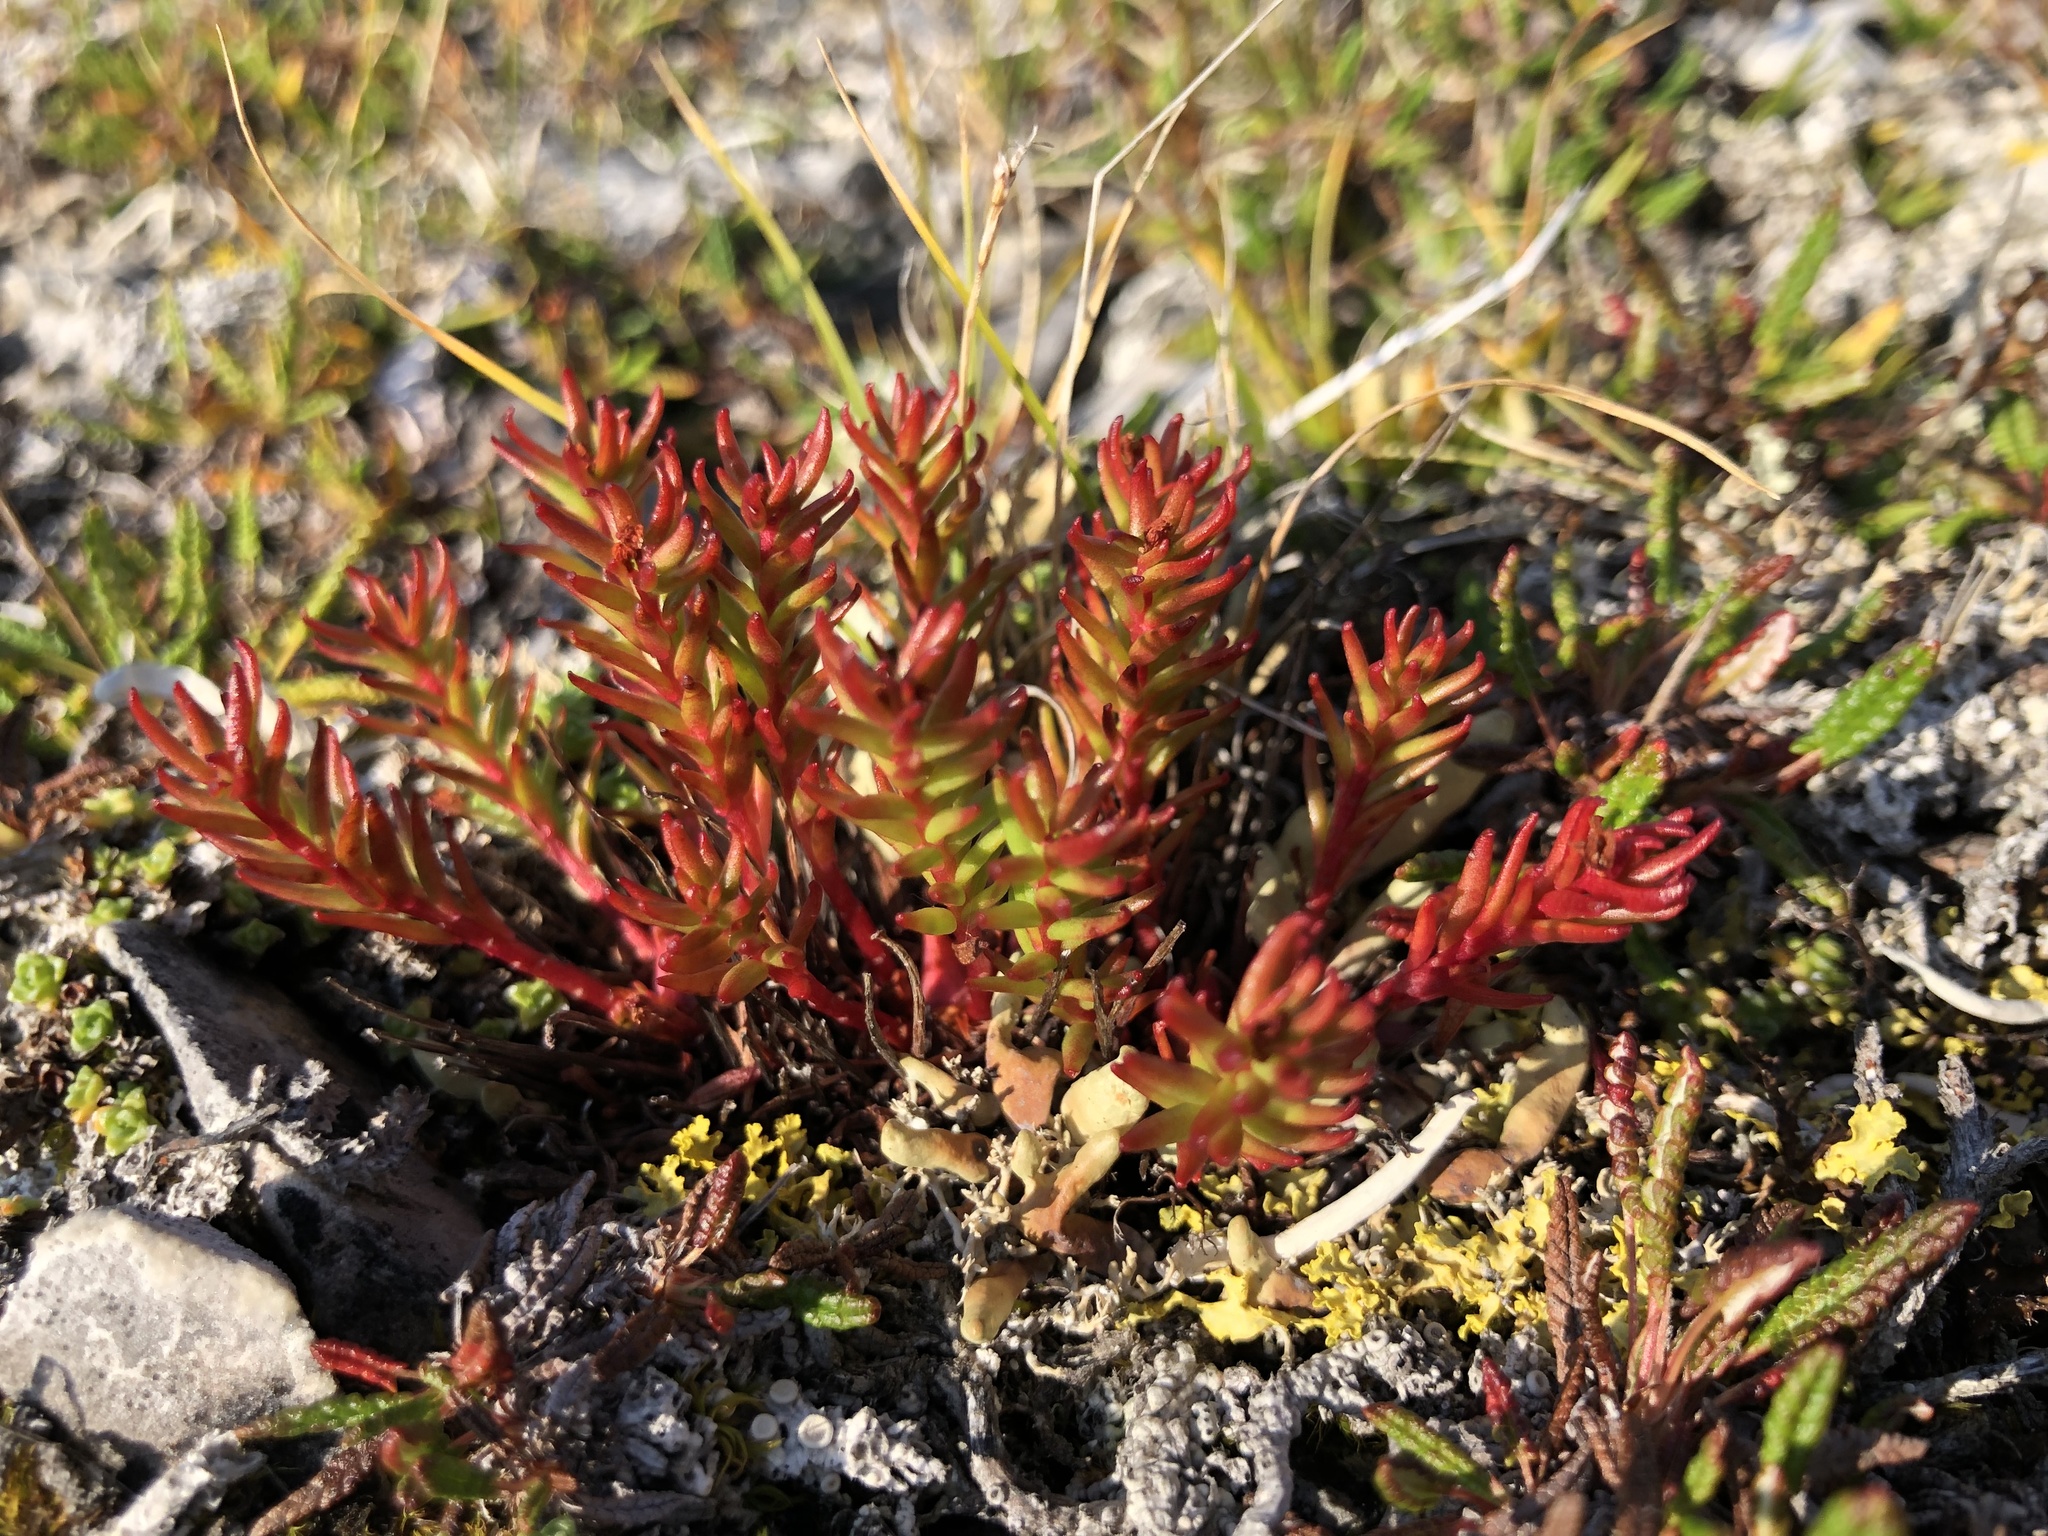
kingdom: Plantae
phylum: Tracheophyta
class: Magnoliopsida
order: Saxifragales
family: Crassulaceae
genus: Rhodiola
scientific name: Rhodiola quadrifida
